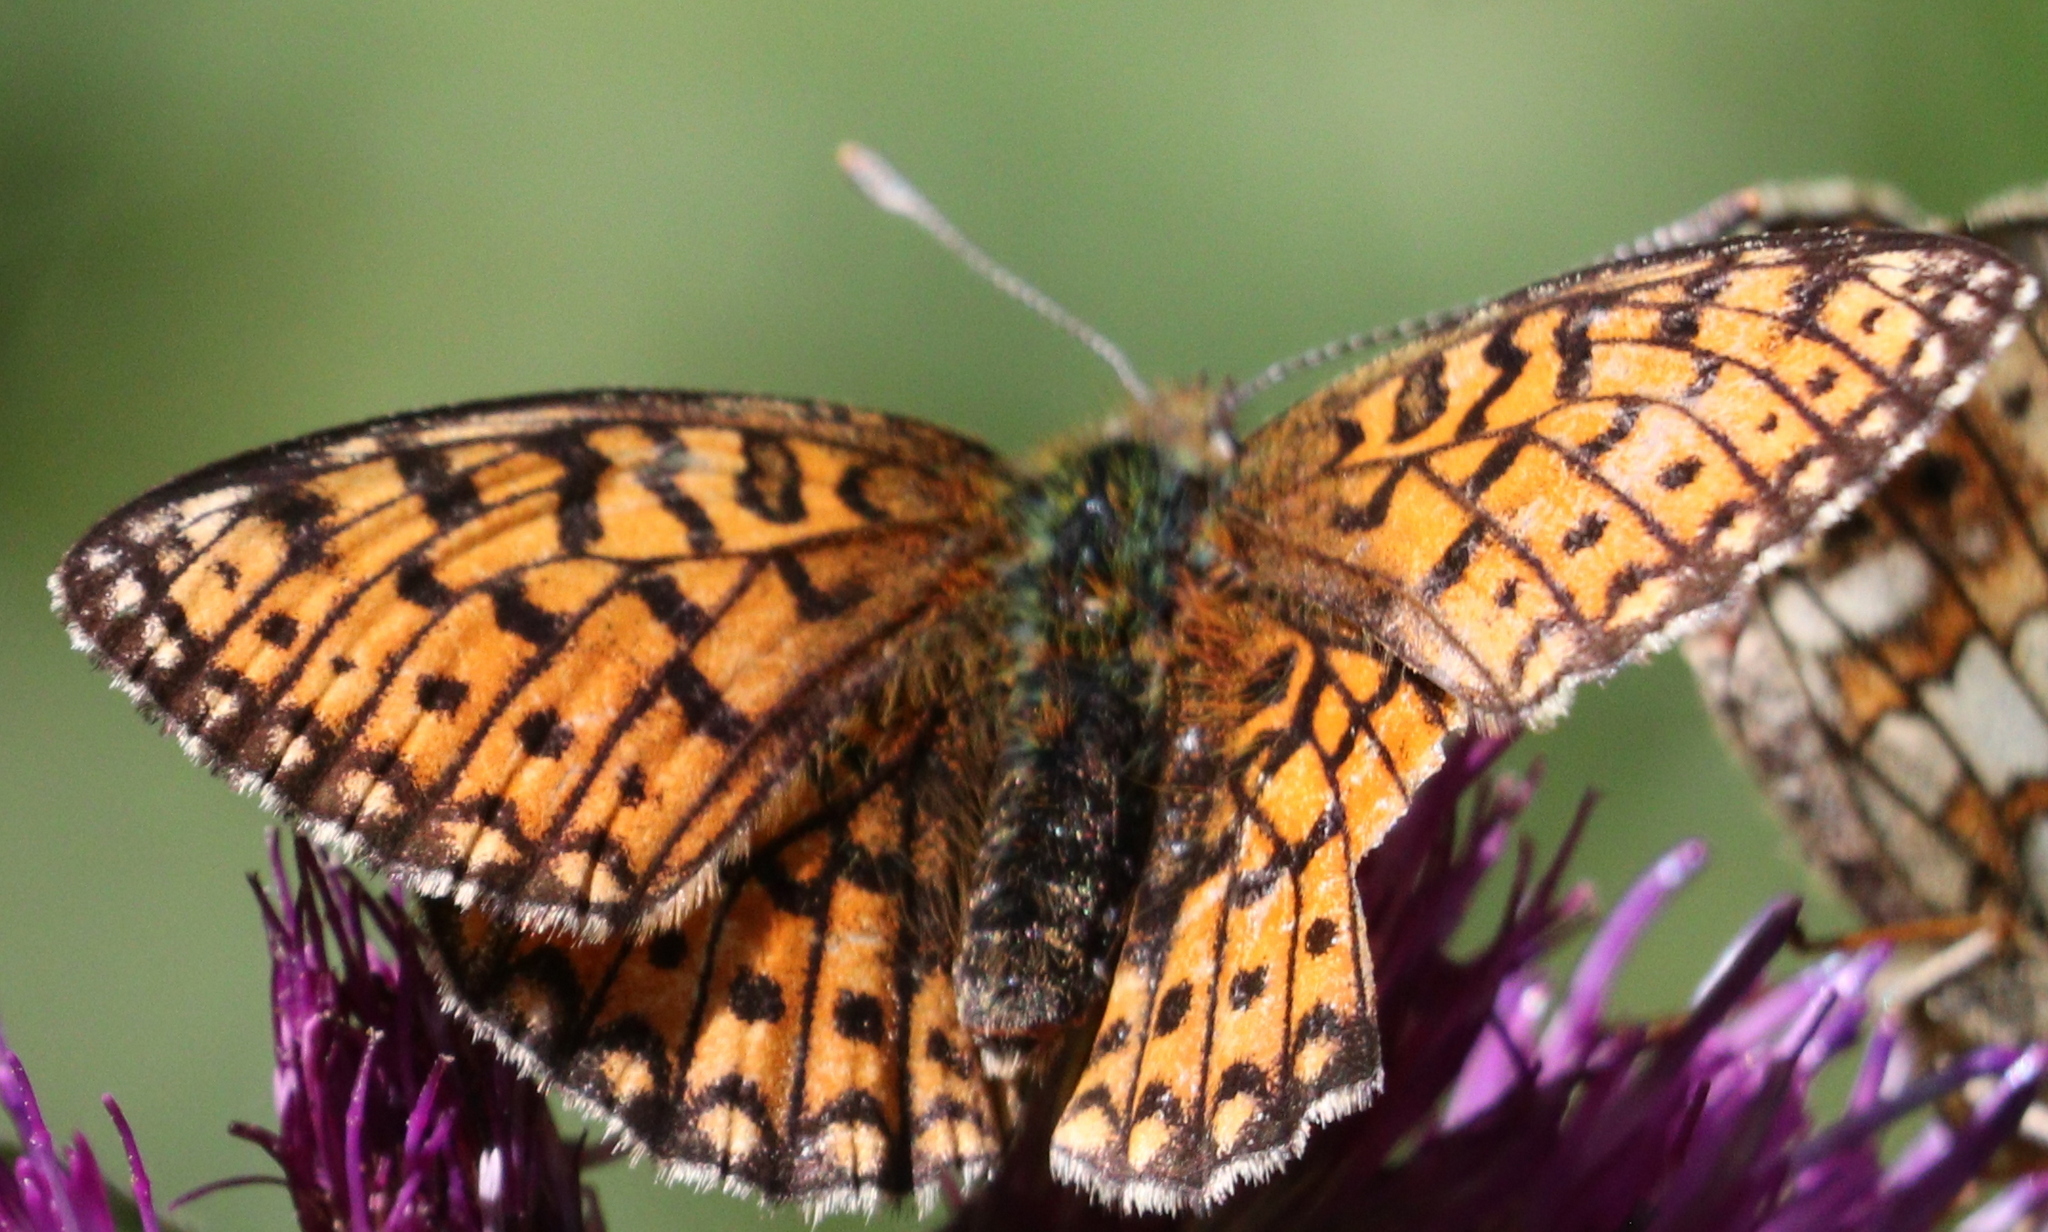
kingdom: Animalia
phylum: Arthropoda
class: Insecta
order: Lepidoptera
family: Nymphalidae
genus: Boloria
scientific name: Boloria selene
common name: Small pearl-bordered fritillary
